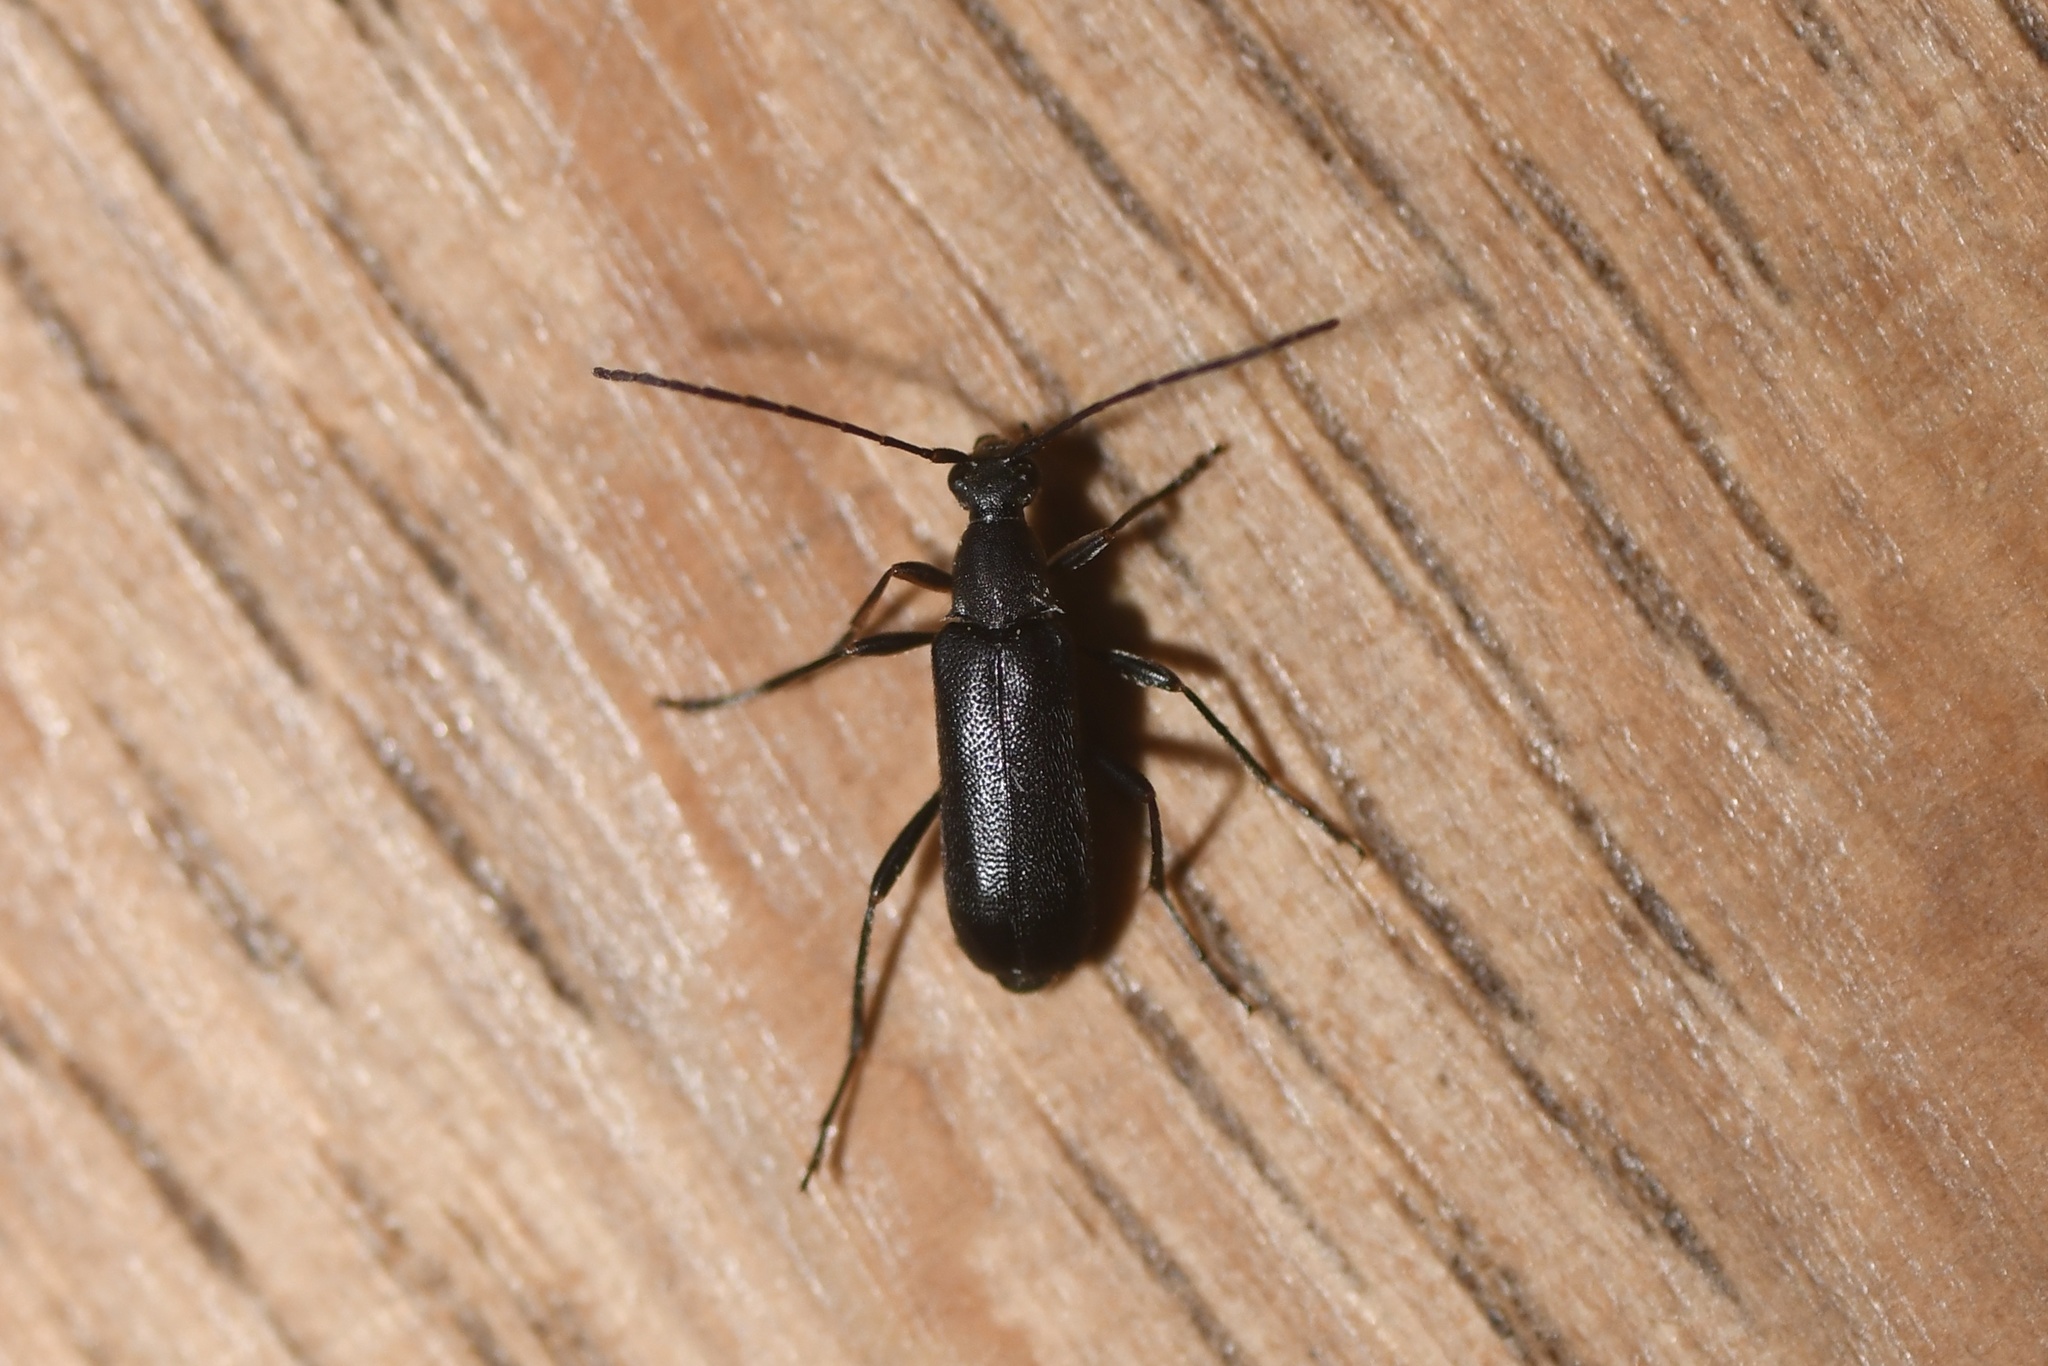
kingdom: Animalia
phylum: Arthropoda
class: Insecta
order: Coleoptera
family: Cerambycidae
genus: Grammoptera
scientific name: Grammoptera subargentata
